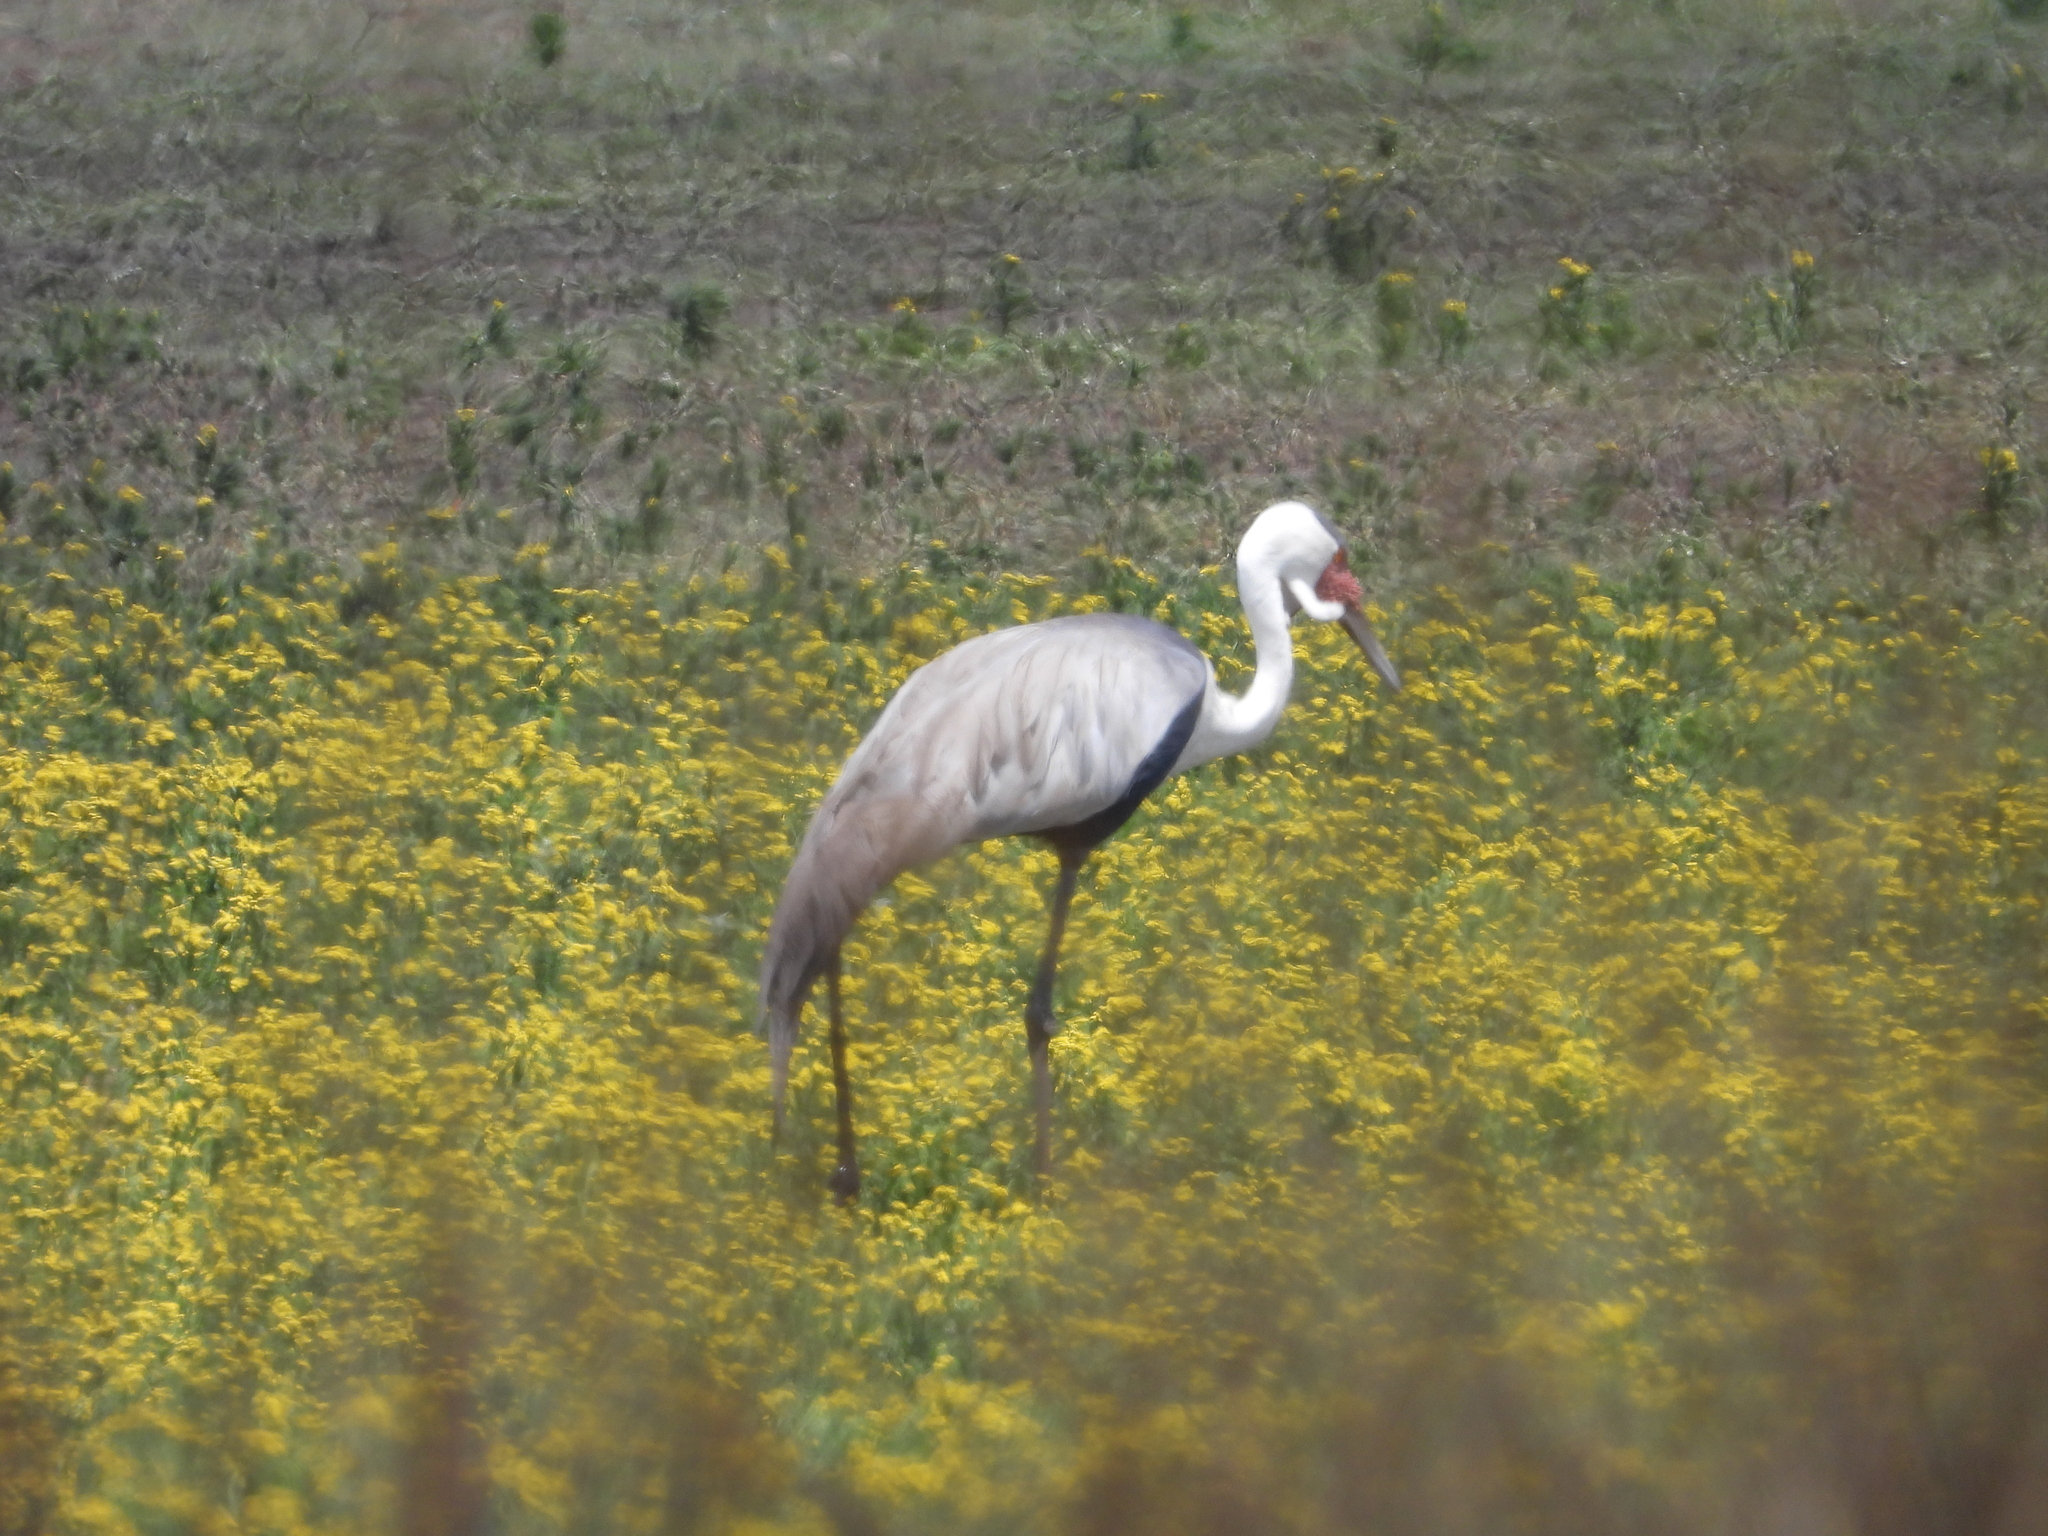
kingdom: Animalia
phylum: Chordata
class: Aves
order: Gruiformes
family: Gruidae
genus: Bugeranus
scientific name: Bugeranus carunculatus
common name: Wattled crane
